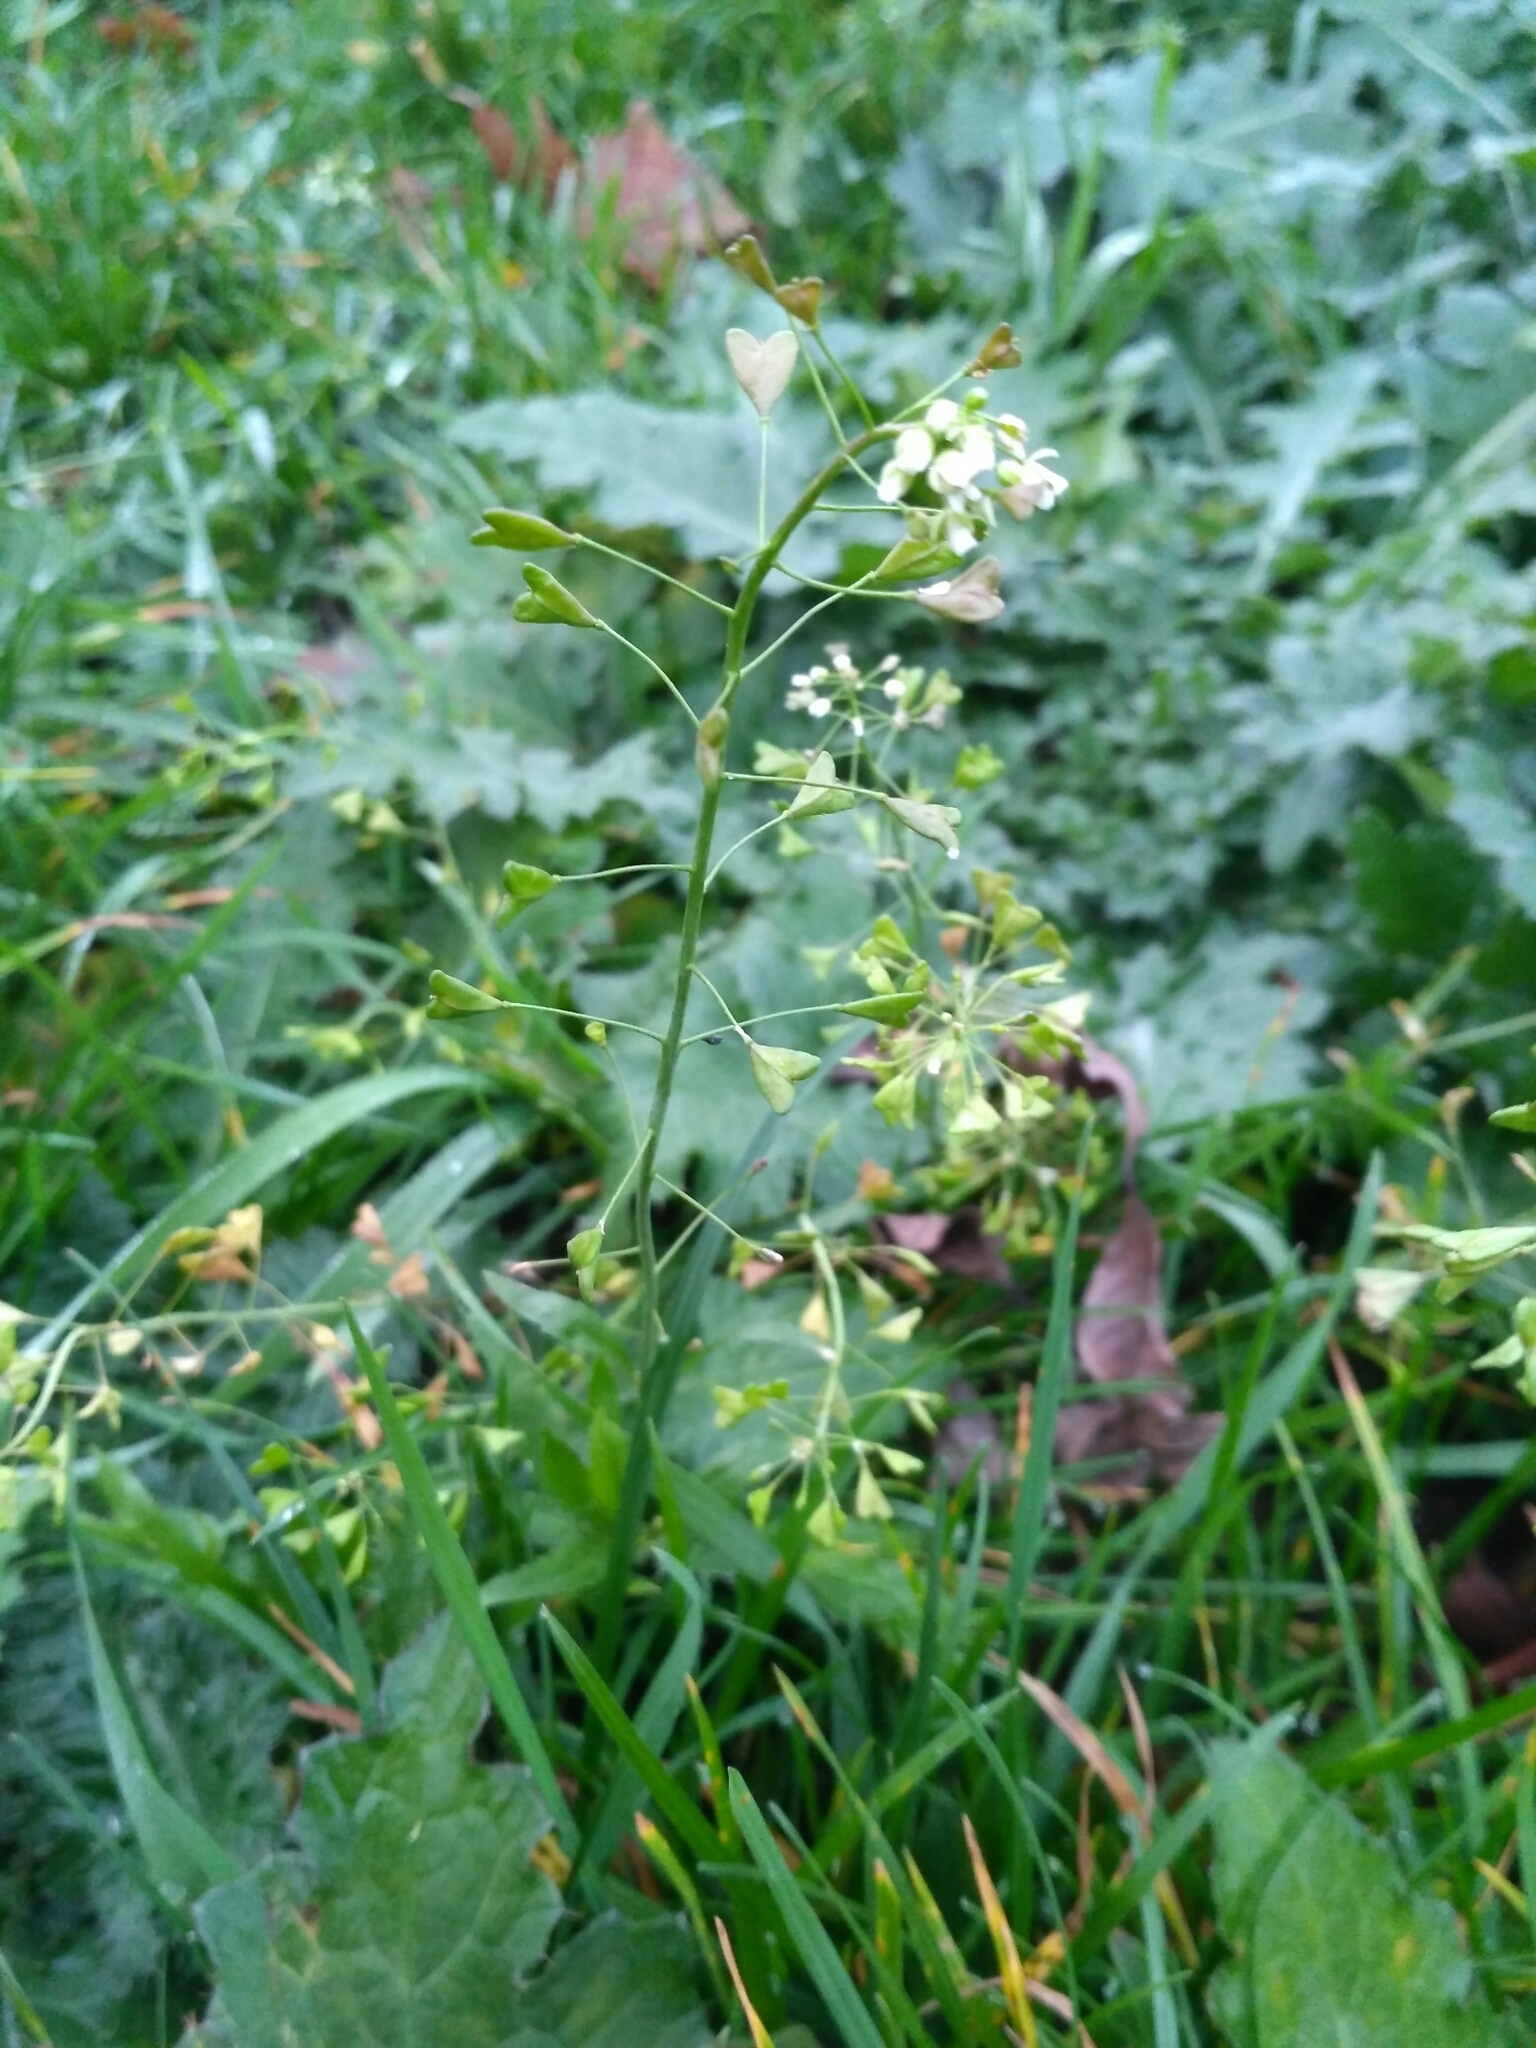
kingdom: Plantae
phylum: Tracheophyta
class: Magnoliopsida
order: Brassicales
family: Brassicaceae
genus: Capsella
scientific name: Capsella bursa-pastoris
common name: Shepherd's purse
